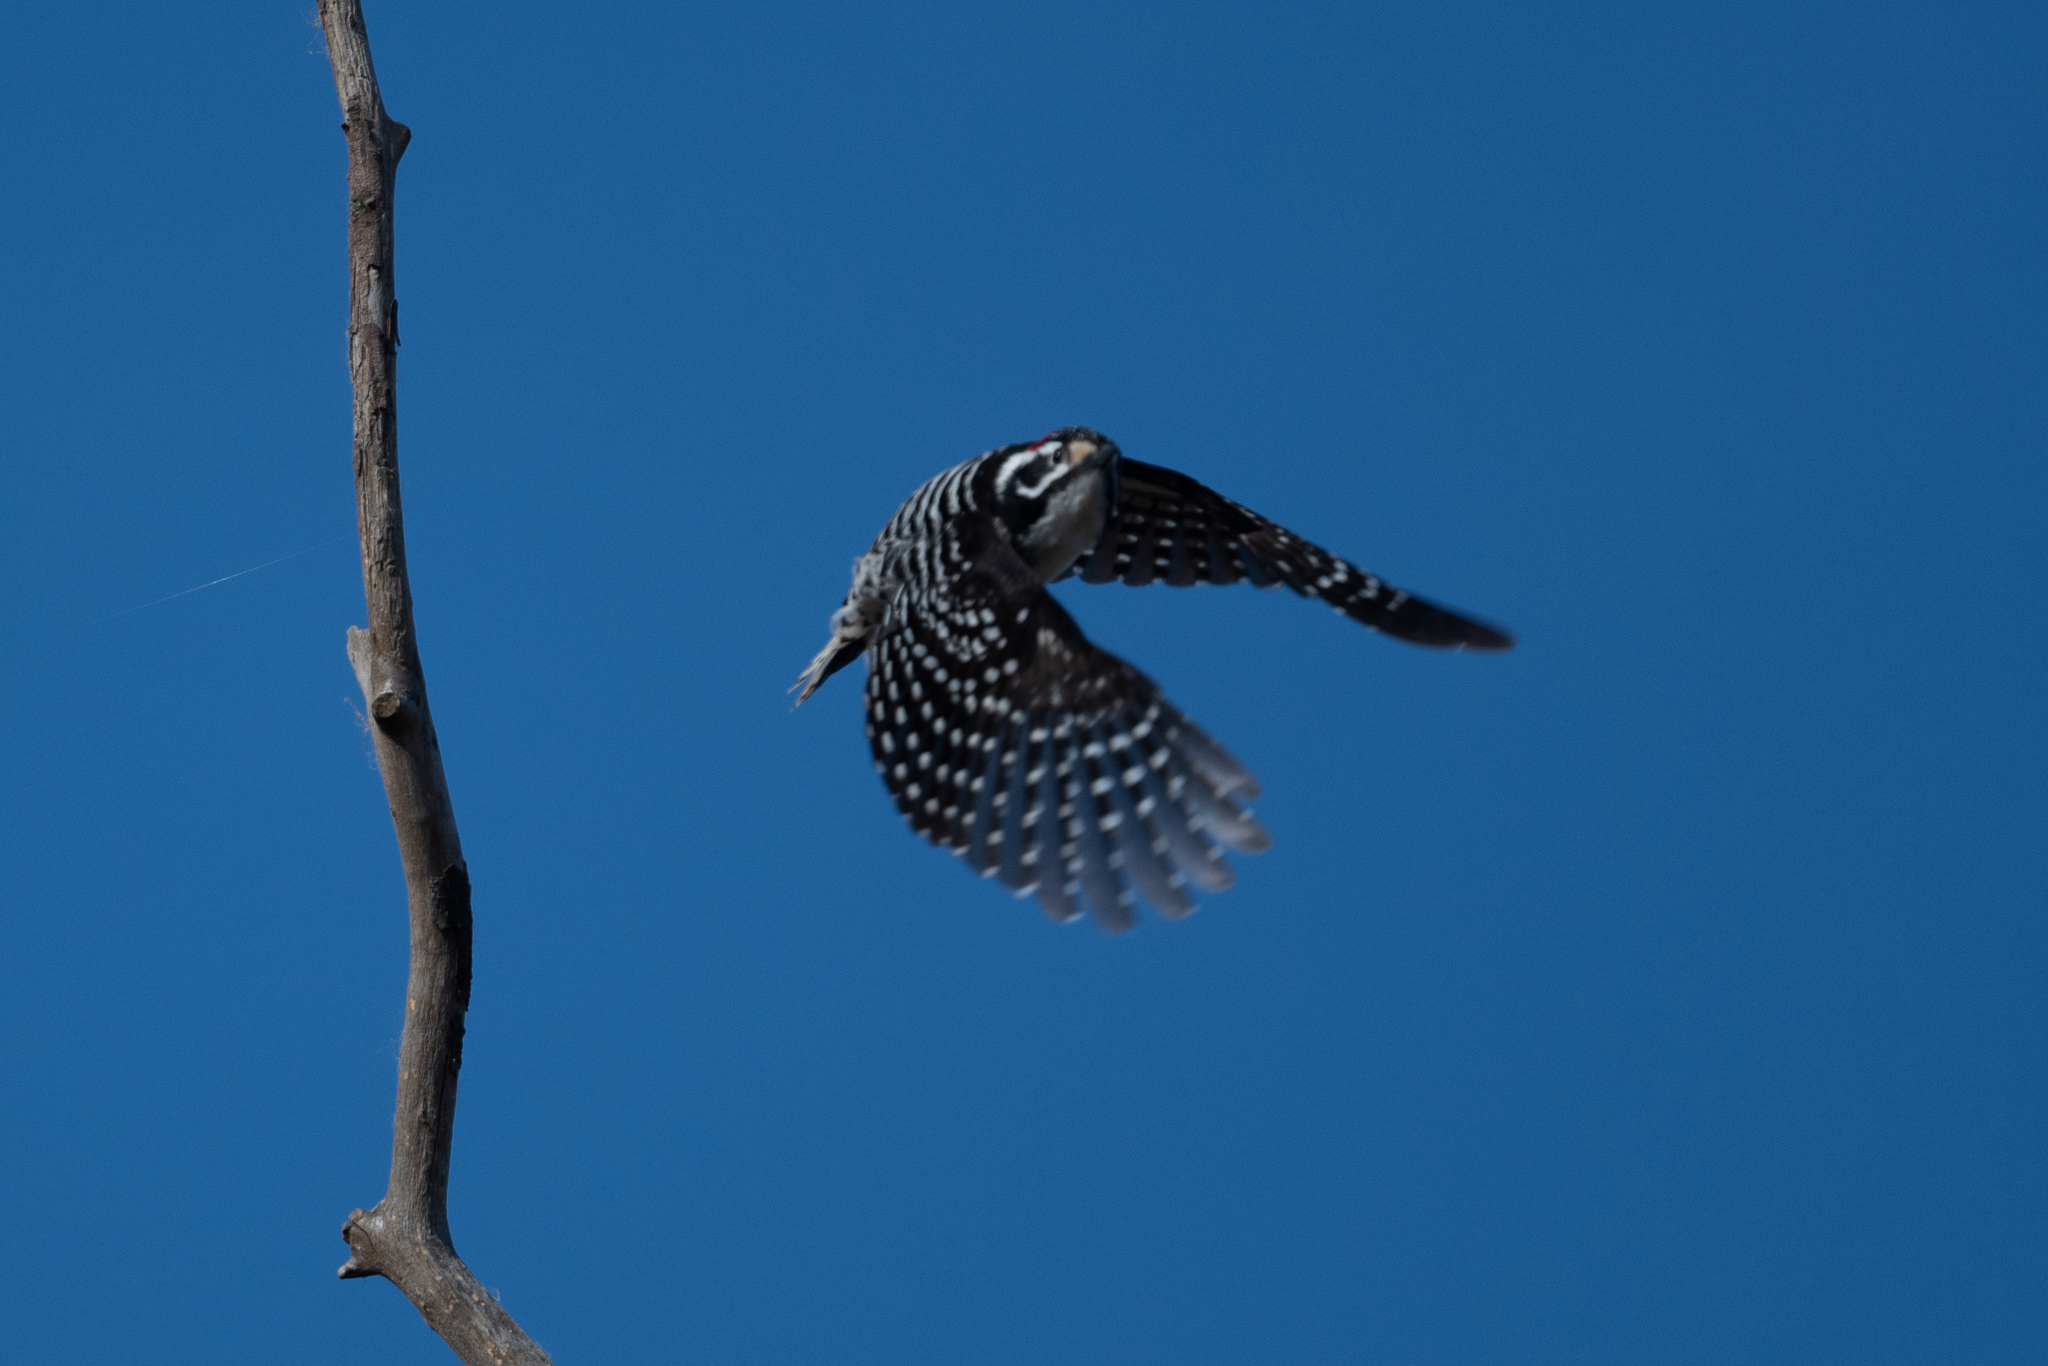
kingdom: Animalia
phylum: Chordata
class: Aves
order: Piciformes
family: Picidae
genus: Dryobates
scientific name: Dryobates nuttallii
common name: Nuttall's woodpecker
